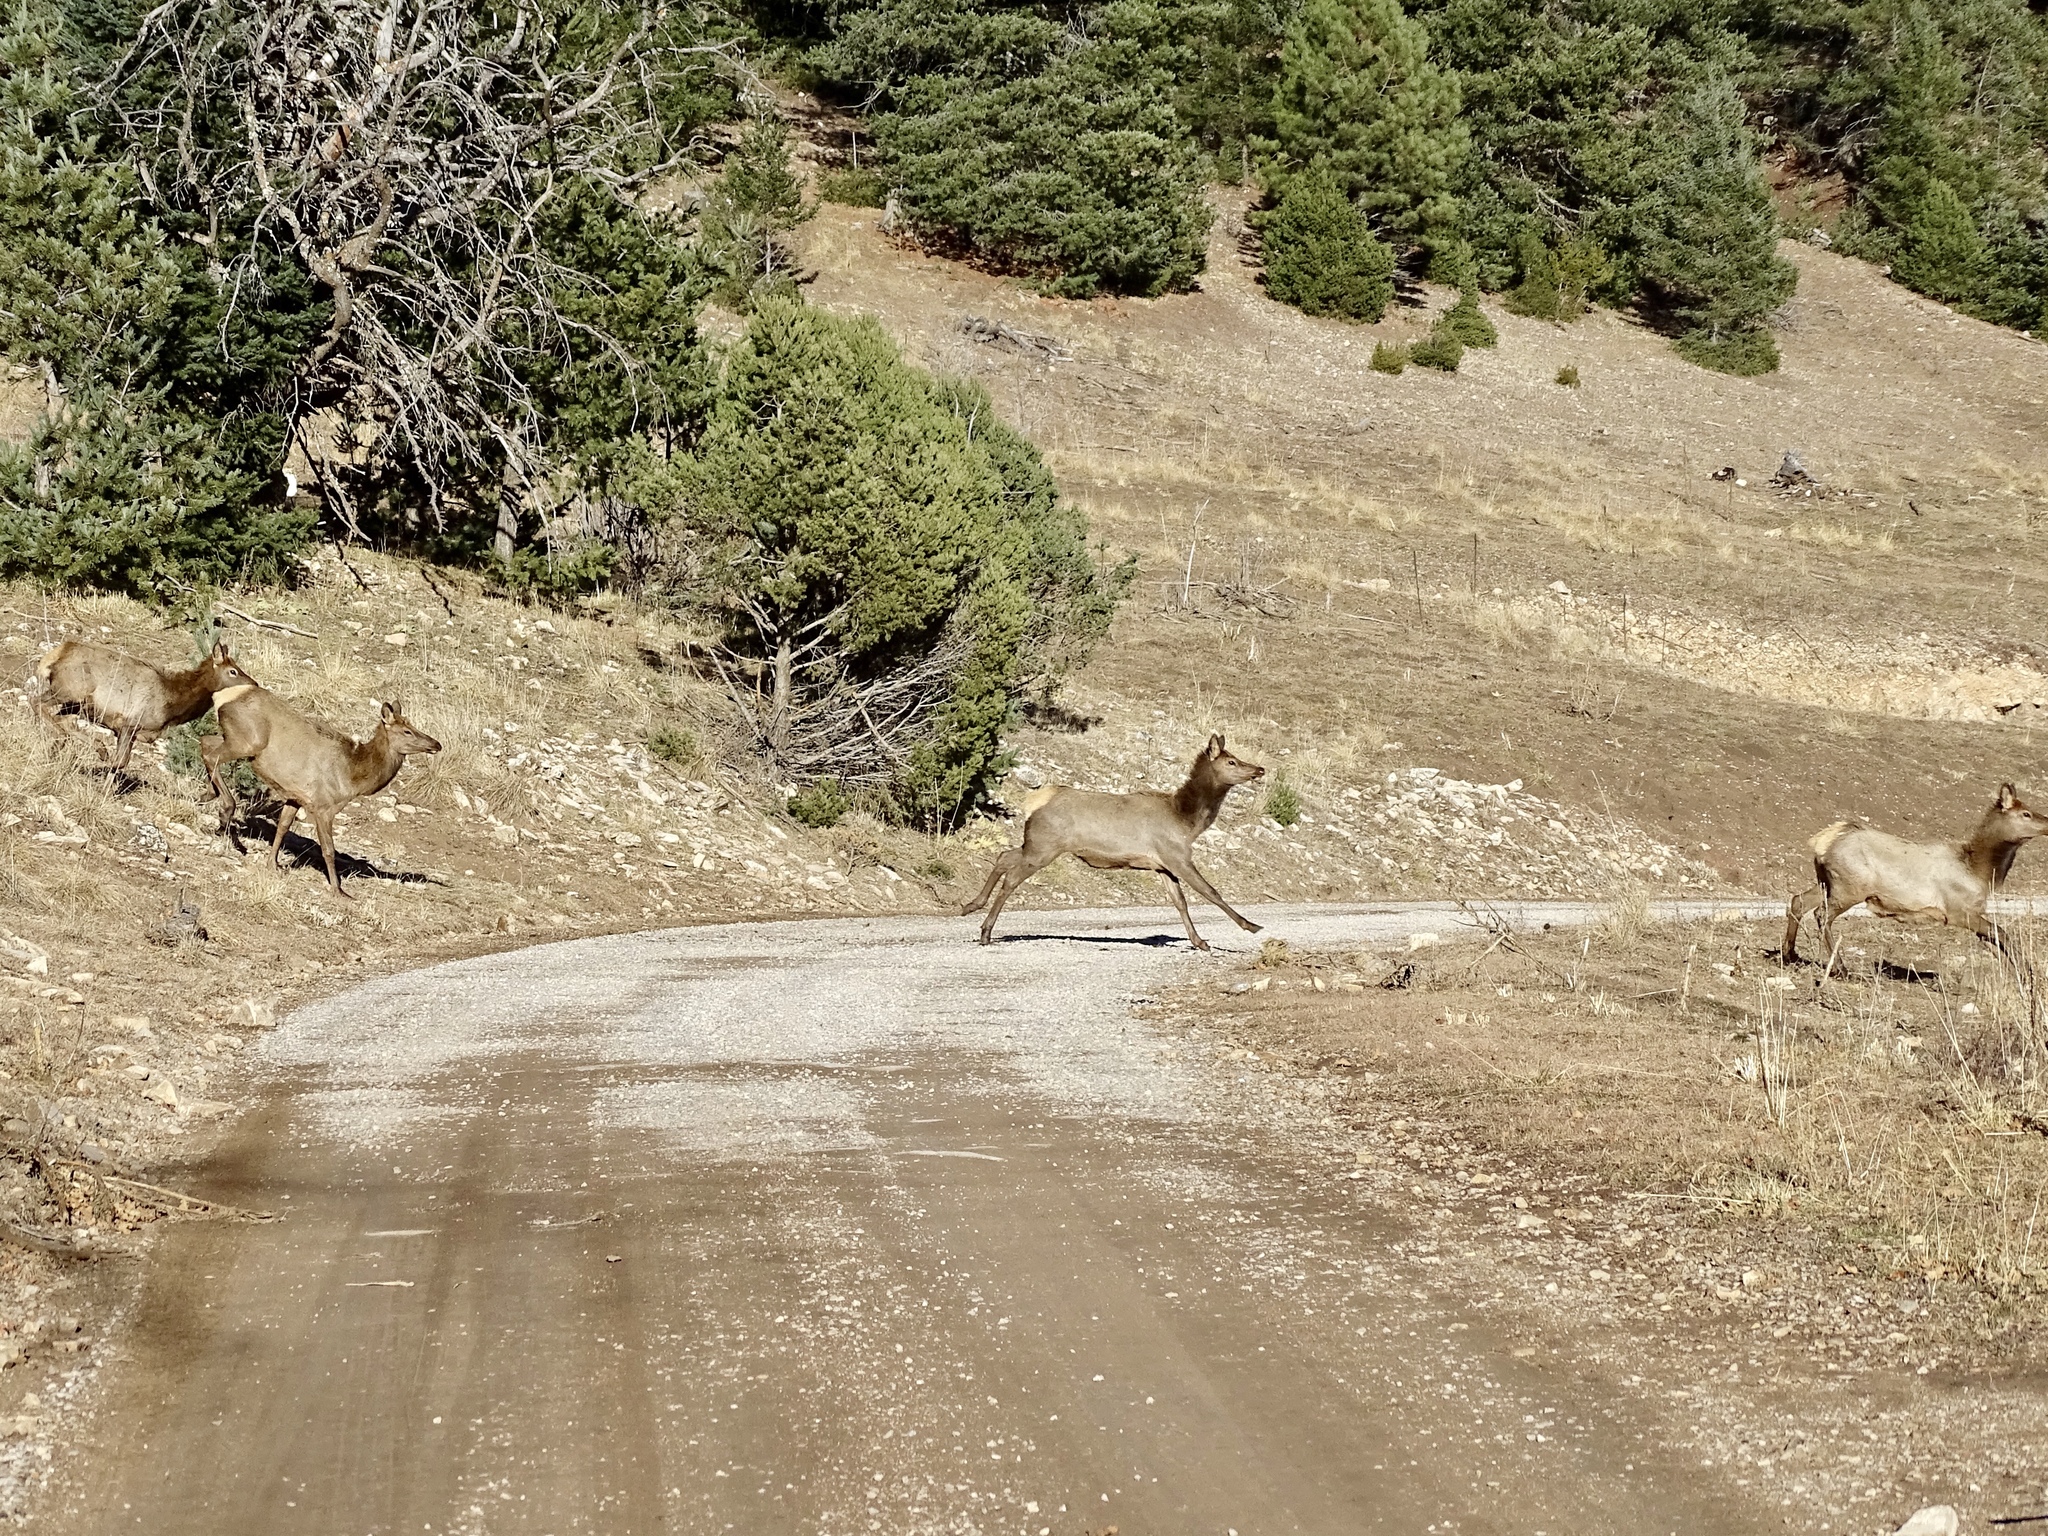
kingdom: Animalia
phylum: Chordata
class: Mammalia
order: Artiodactyla
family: Cervidae
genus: Cervus
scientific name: Cervus elaphus
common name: Red deer
